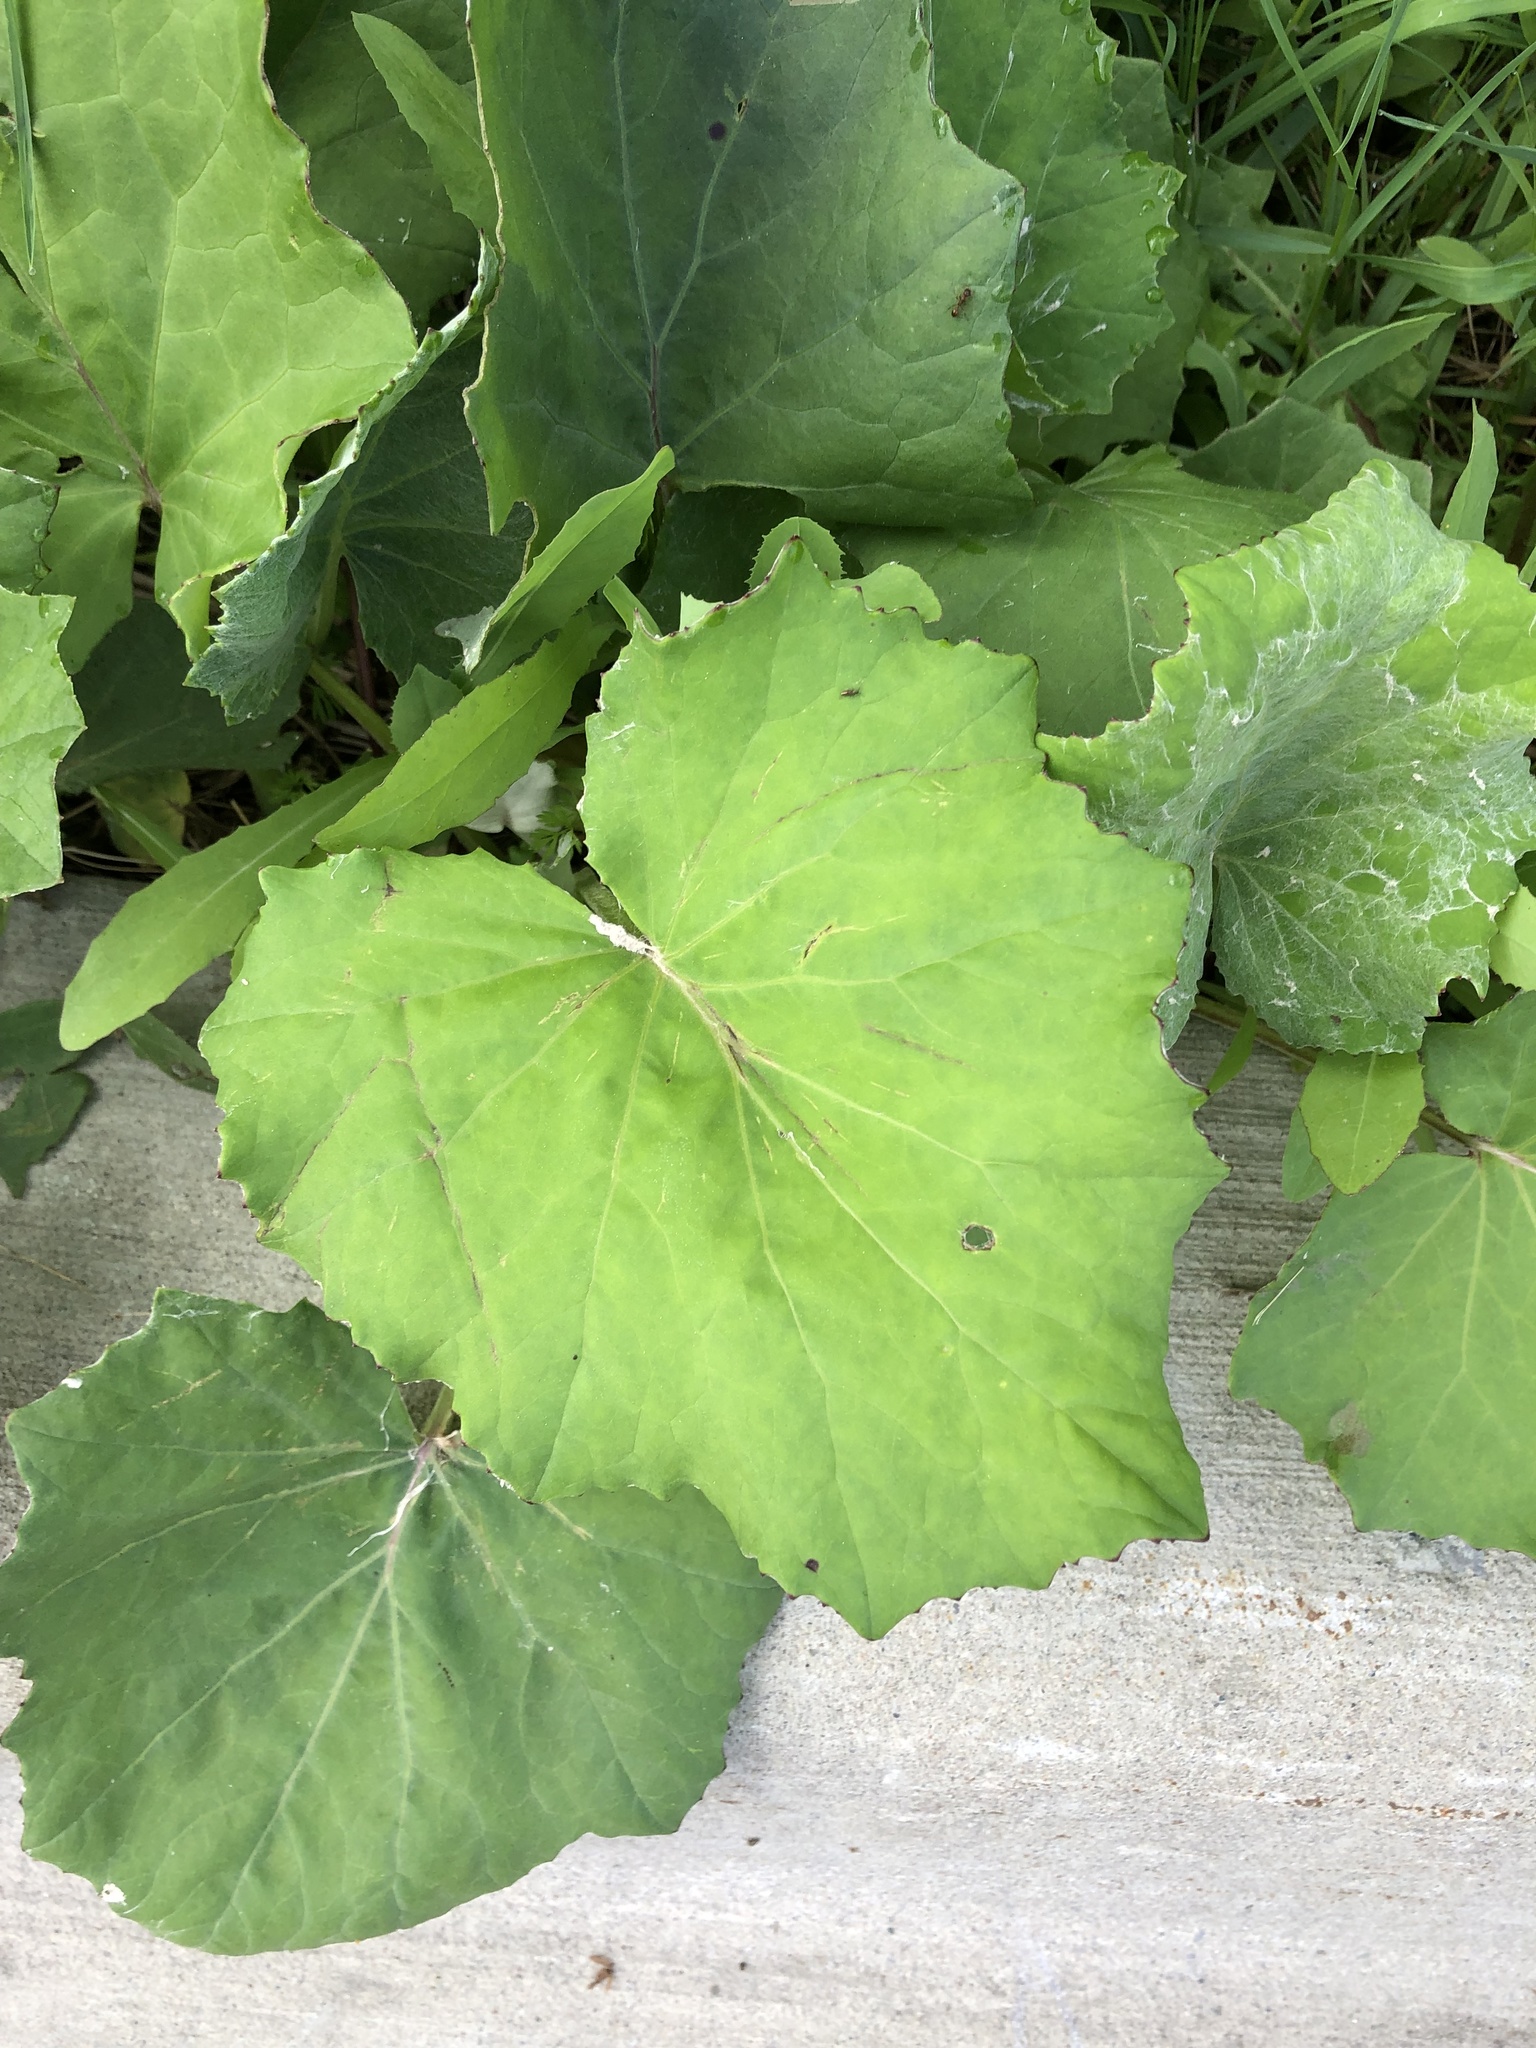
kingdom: Plantae
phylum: Tracheophyta
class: Magnoliopsida
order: Asterales
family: Asteraceae
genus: Tussilago
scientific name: Tussilago farfara
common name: Coltsfoot
